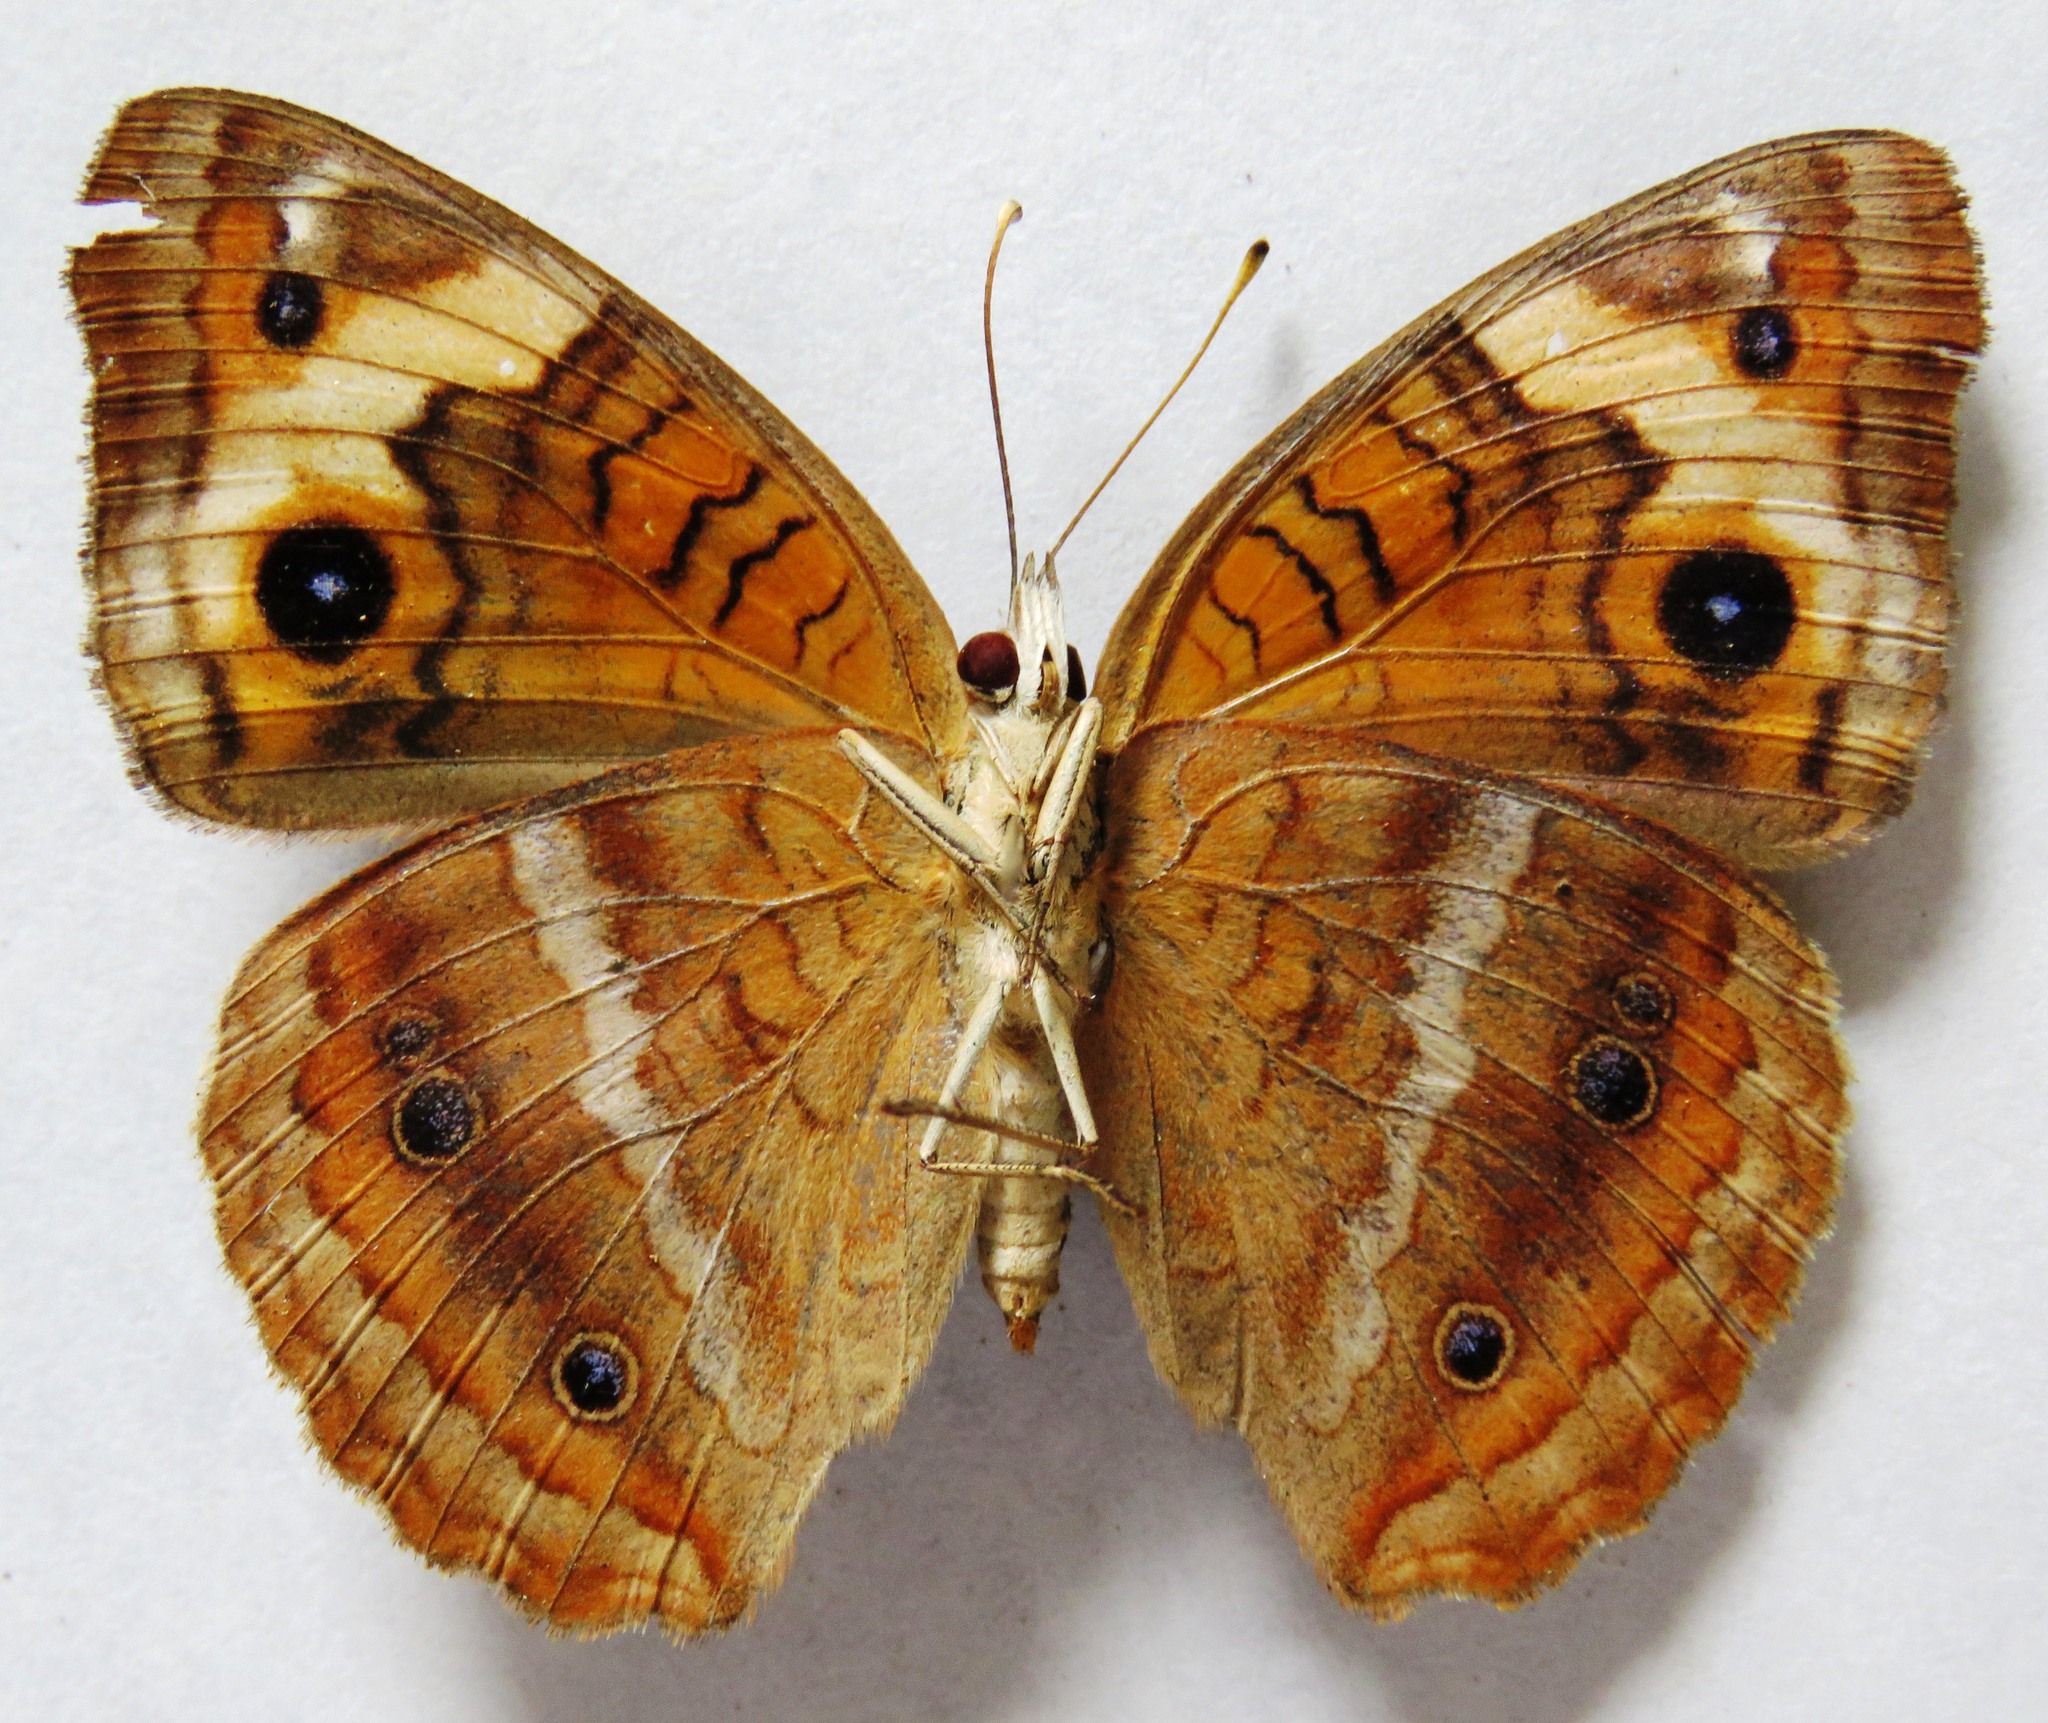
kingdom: Animalia
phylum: Arthropoda
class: Insecta
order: Lepidoptera
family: Nymphalidae
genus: Junonia
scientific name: Junonia lavinia
